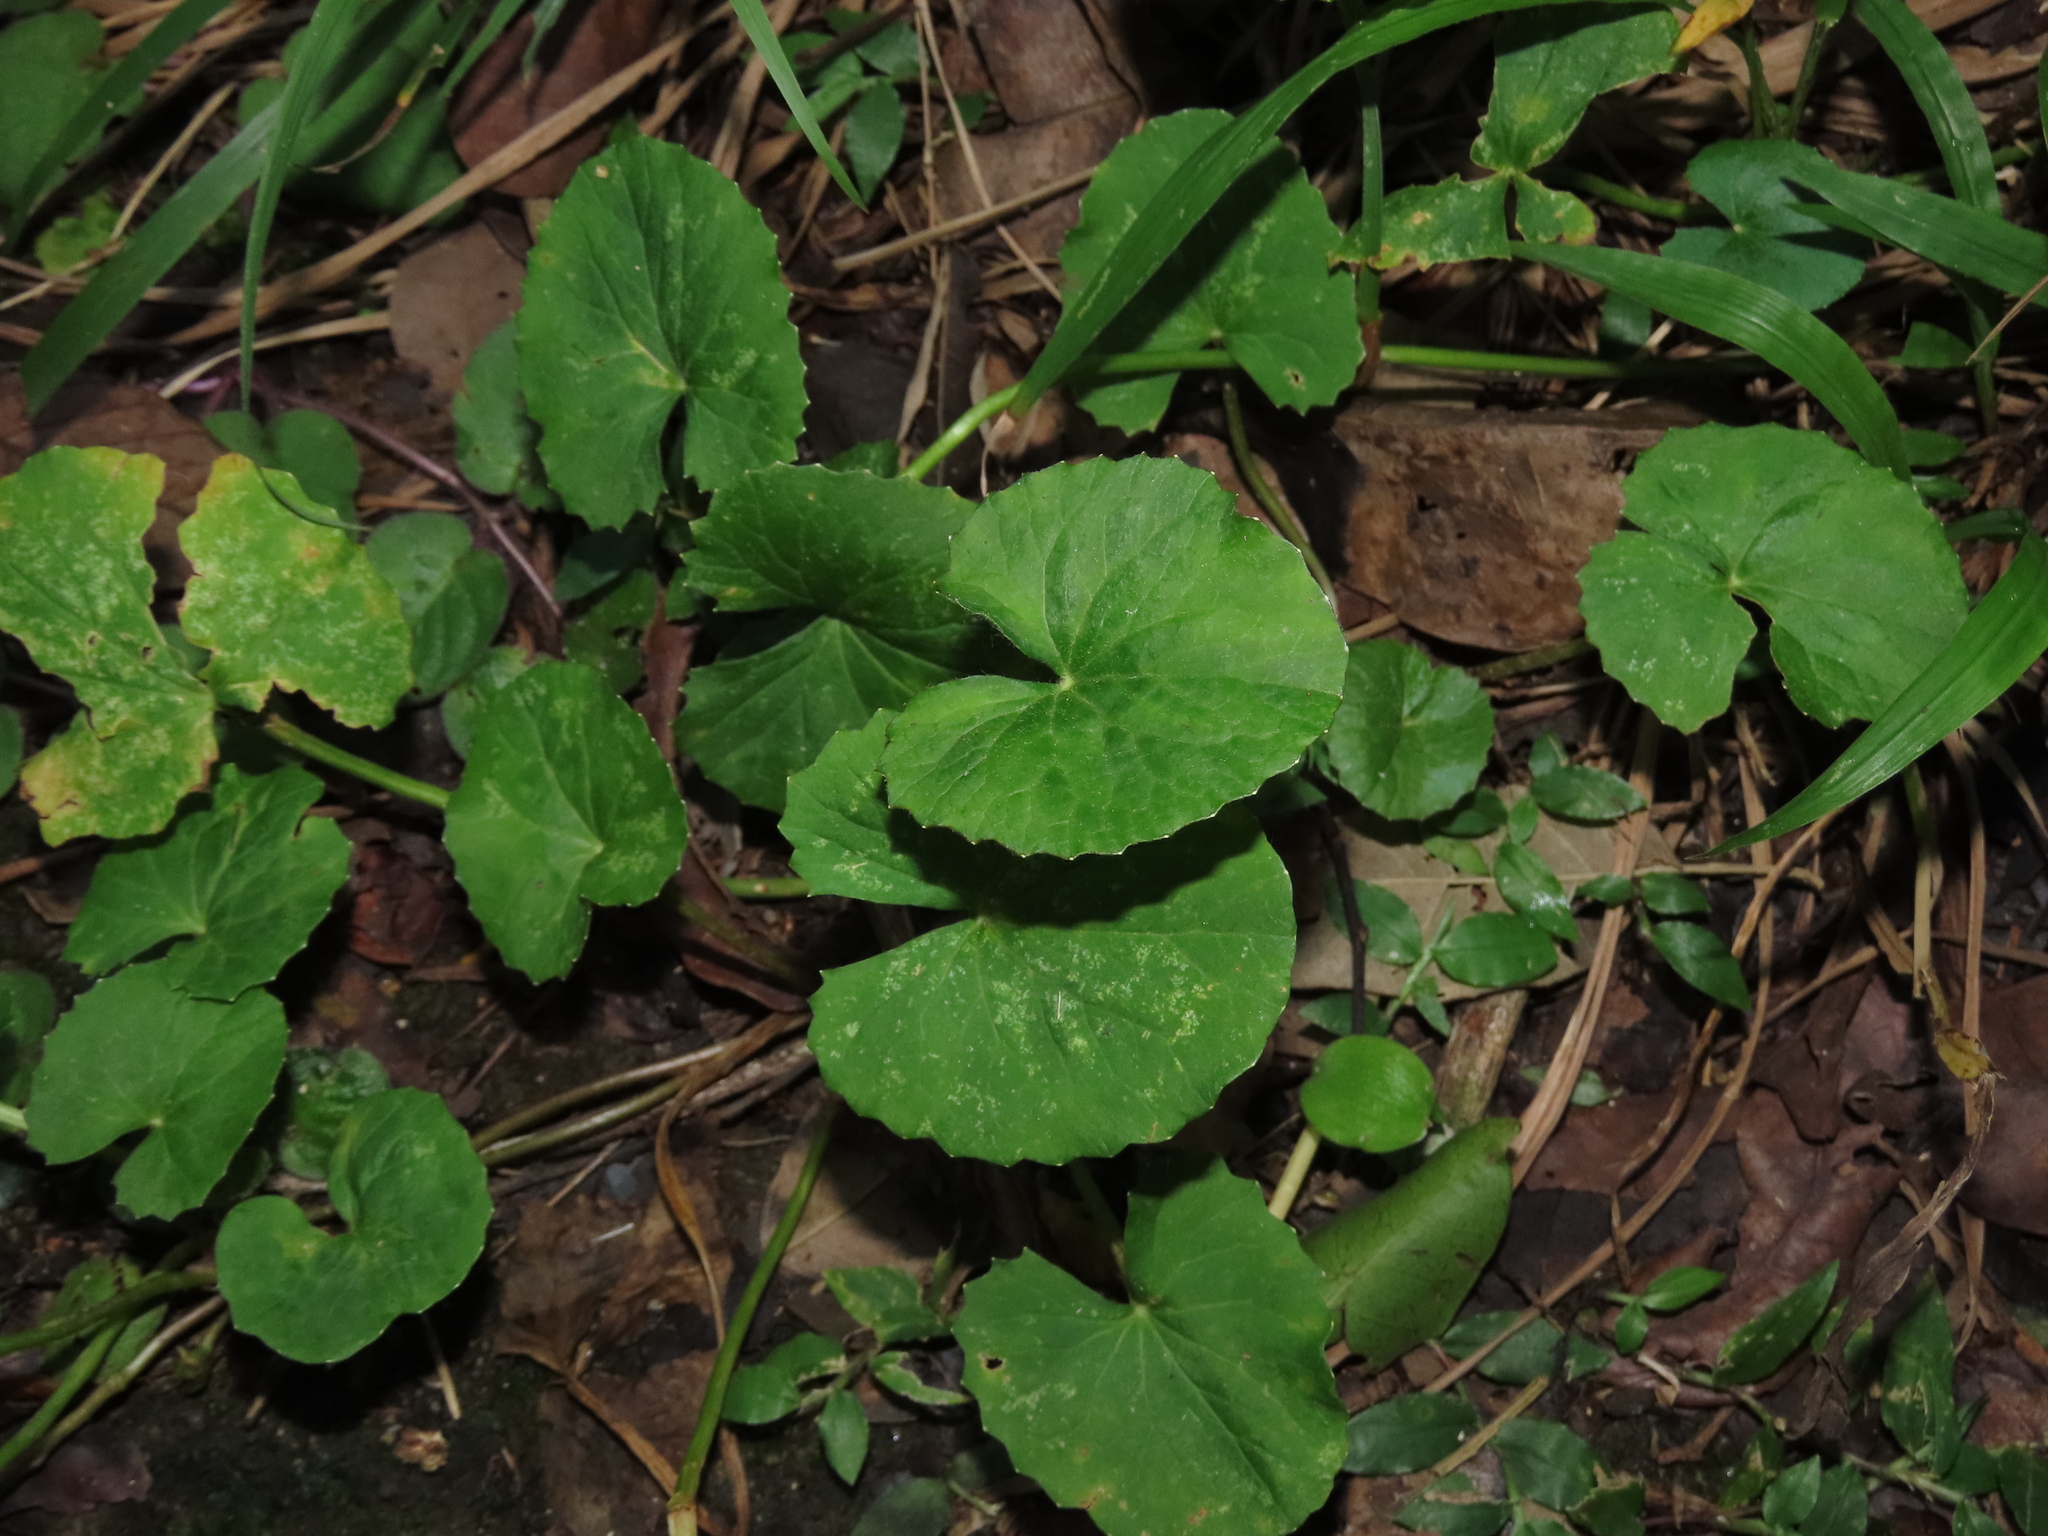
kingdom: Plantae
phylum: Tracheophyta
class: Magnoliopsida
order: Apiales
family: Apiaceae
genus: Centella
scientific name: Centella asiatica
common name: Spadeleaf
